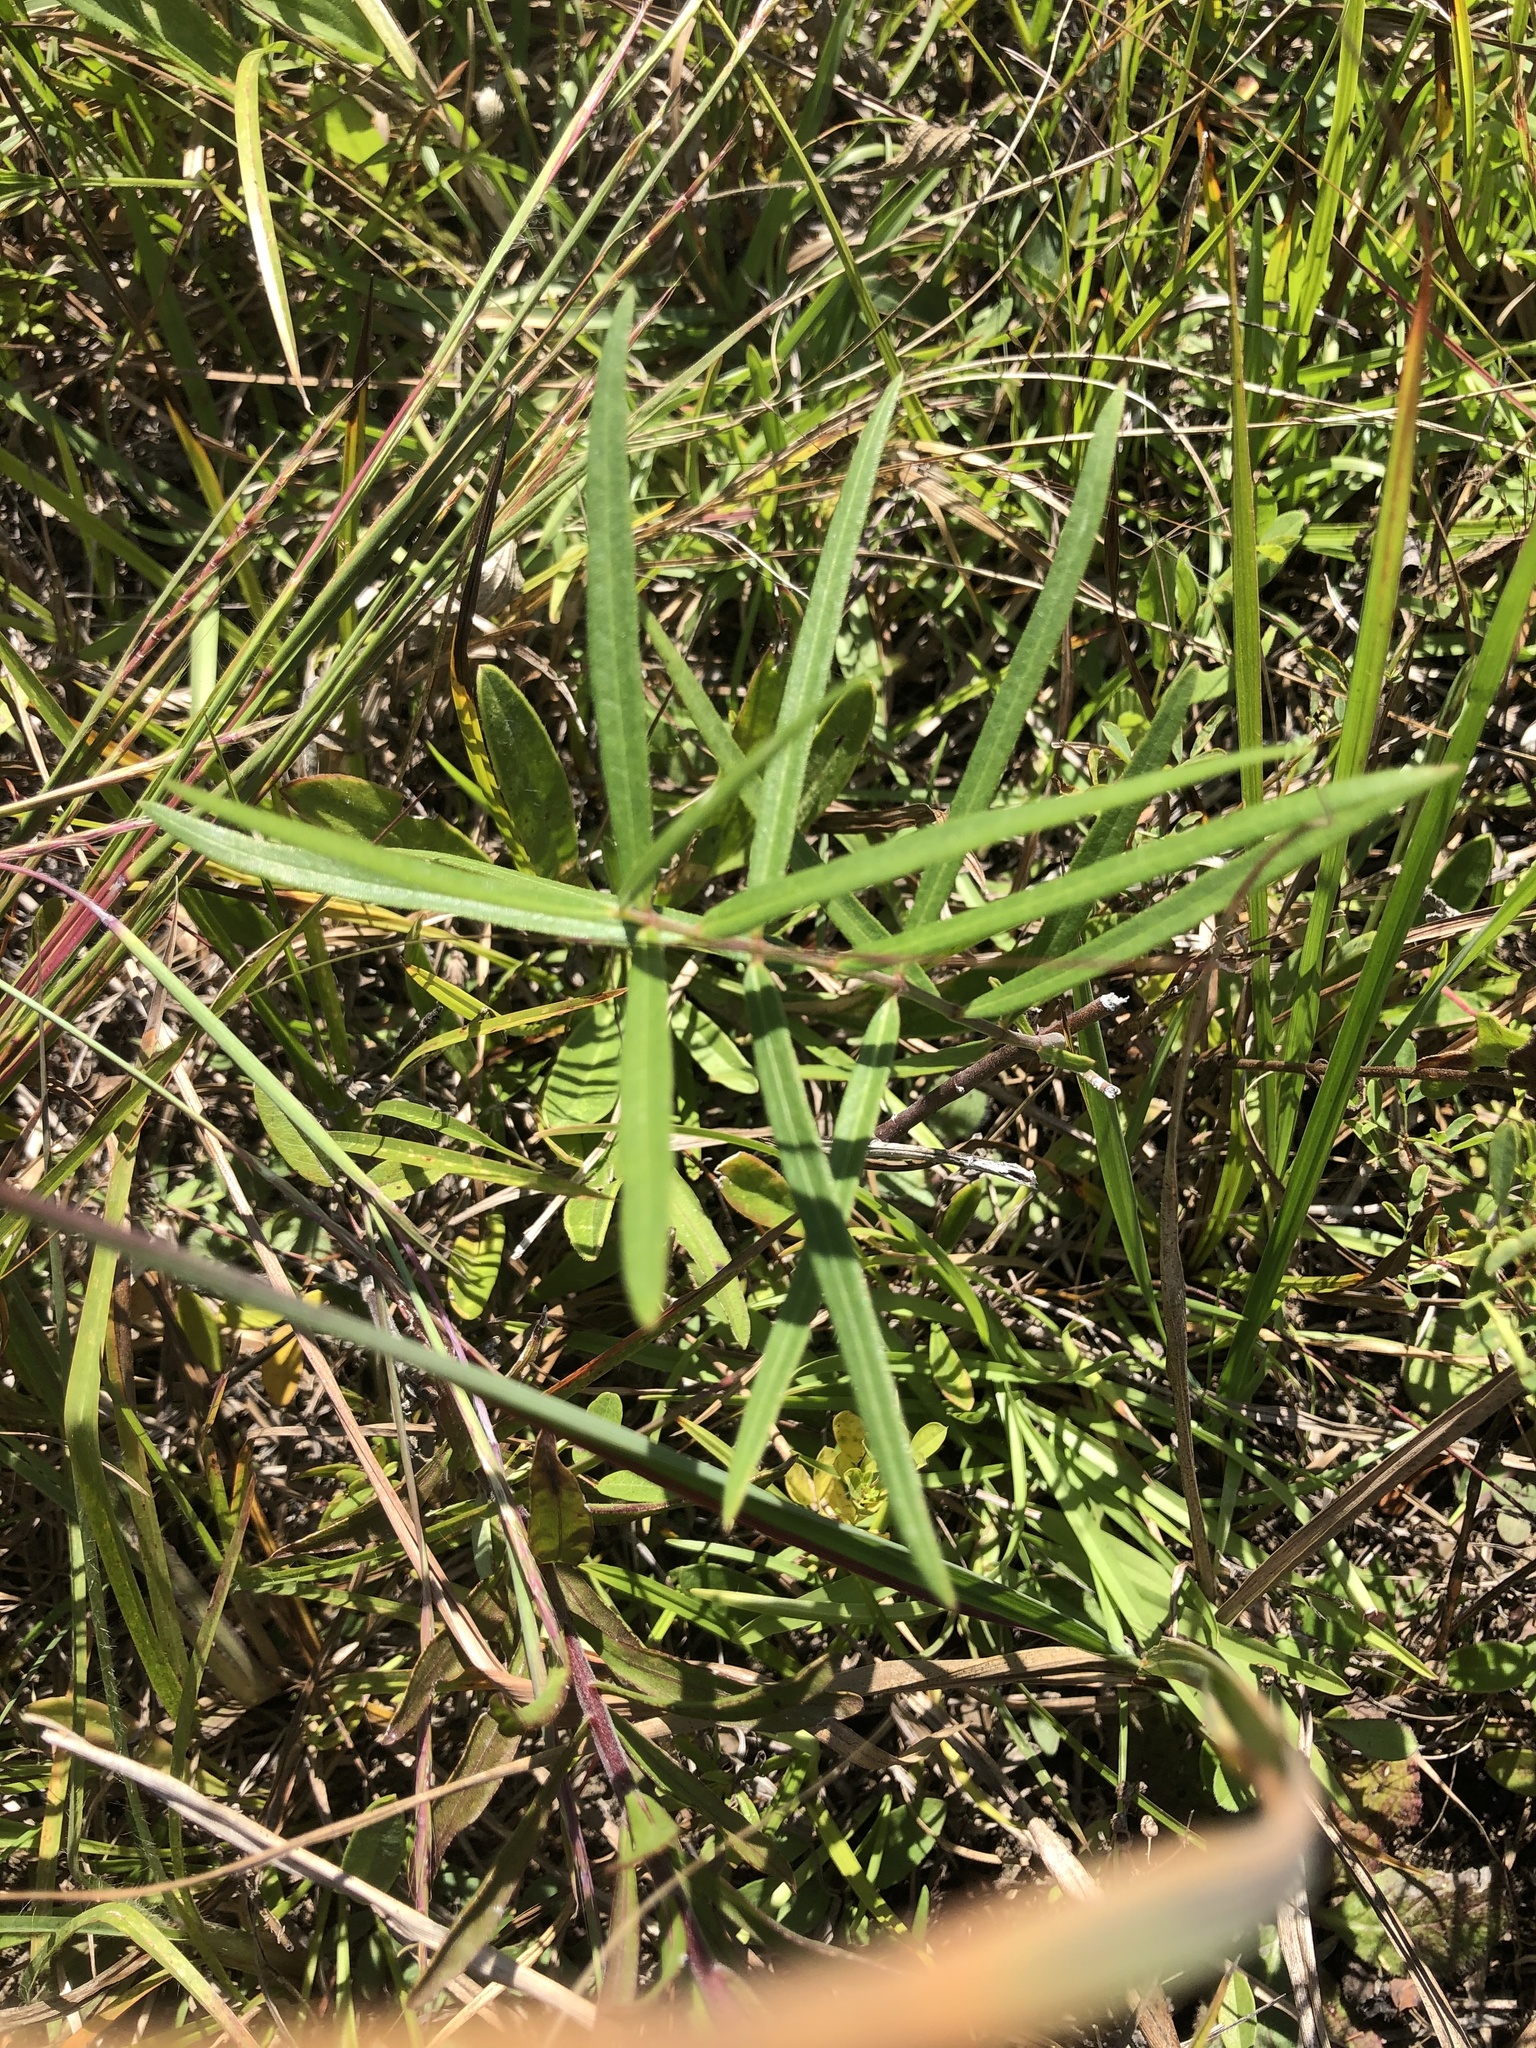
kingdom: Plantae
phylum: Tracheophyta
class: Magnoliopsida
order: Gentianales
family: Apocynaceae
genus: Asclepias
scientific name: Asclepias viridiflora
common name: Green comet milkweed
